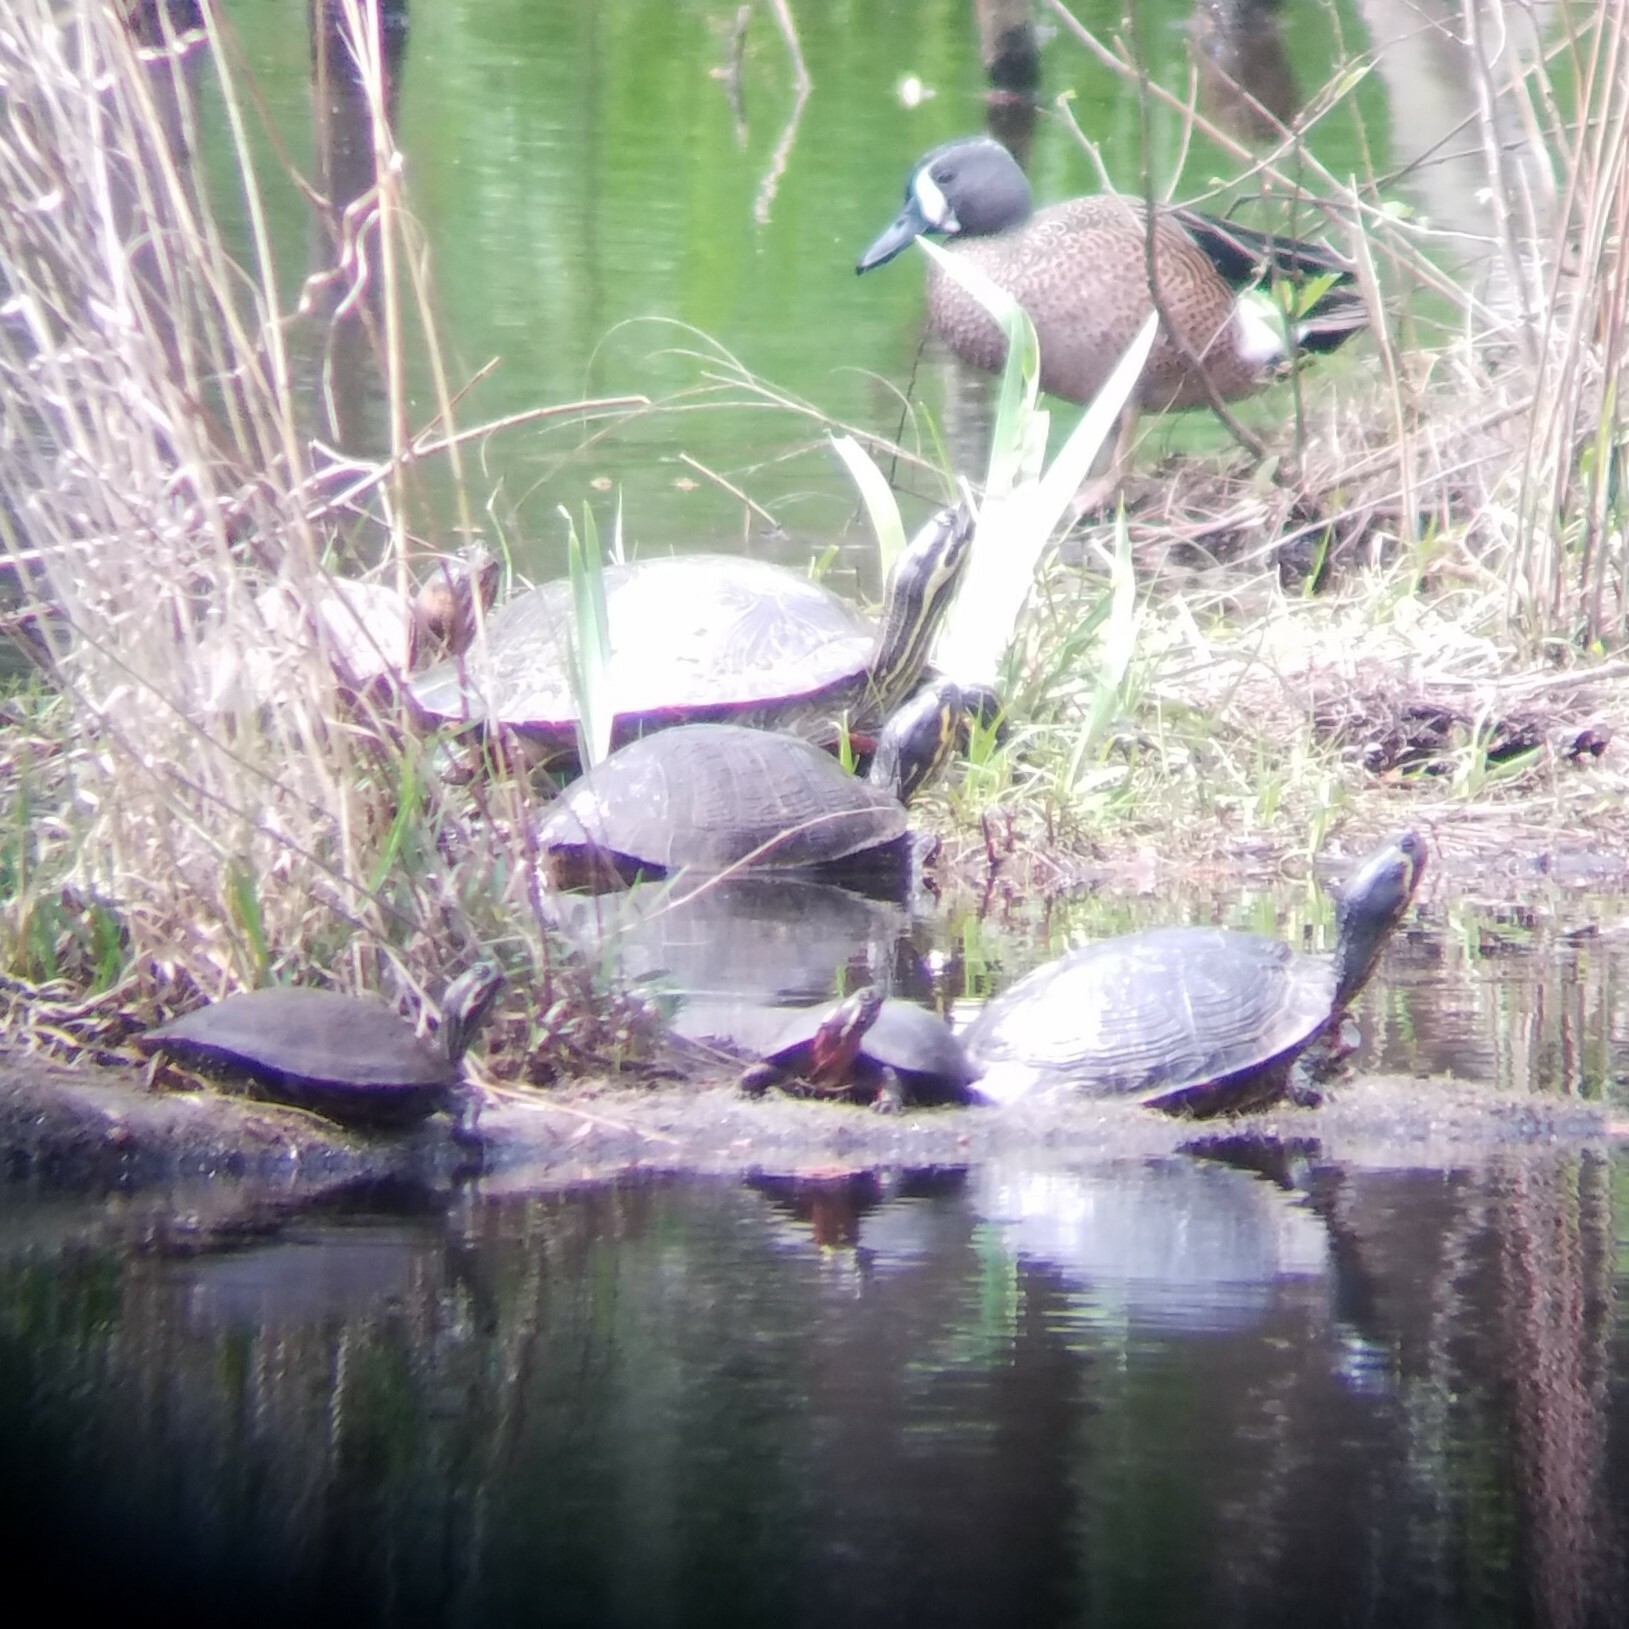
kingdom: Animalia
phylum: Chordata
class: Aves
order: Anseriformes
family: Anatidae
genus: Spatula
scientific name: Spatula discors
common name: Blue-winged teal
